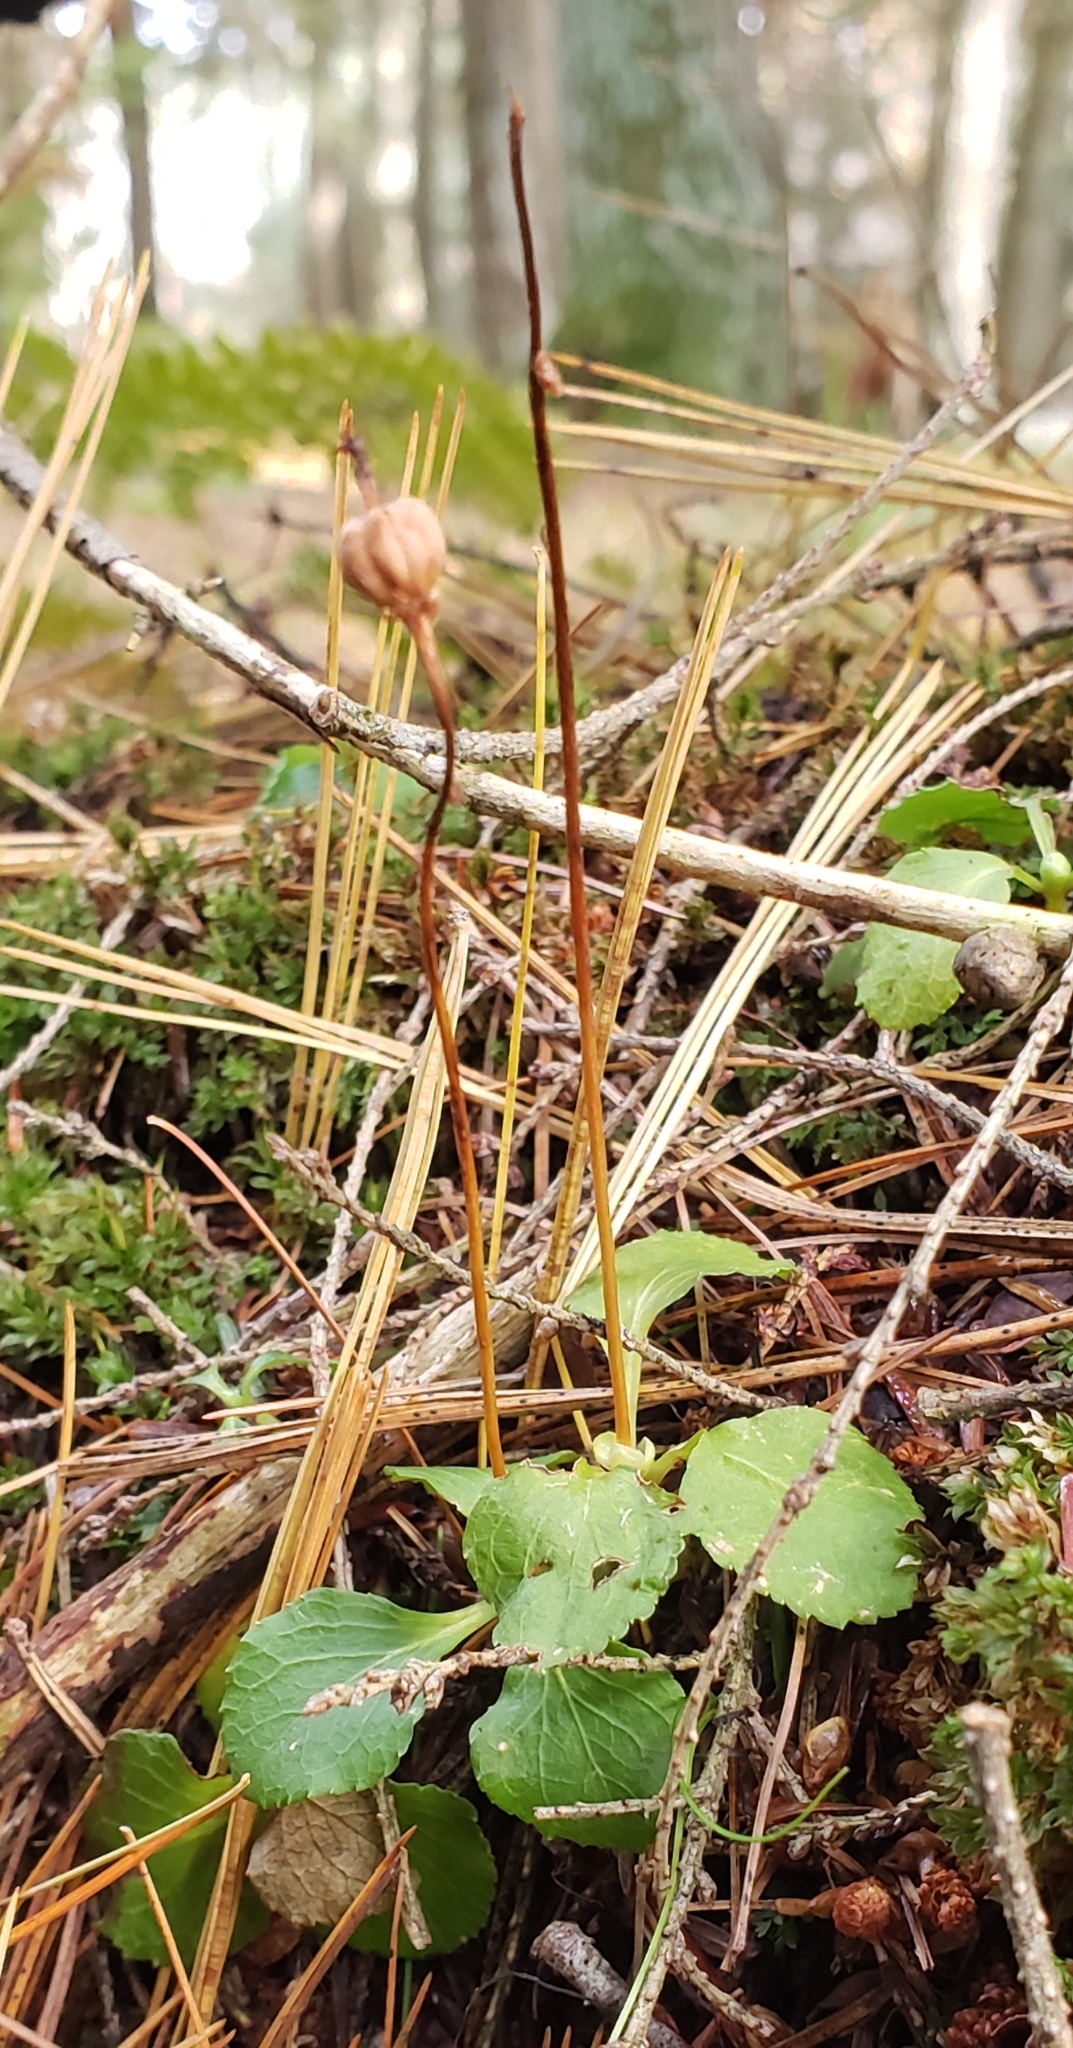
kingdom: Plantae
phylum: Tracheophyta
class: Magnoliopsida
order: Ericales
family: Ericaceae
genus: Moneses
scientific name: Moneses uniflora
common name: One-flowered wintergreen
